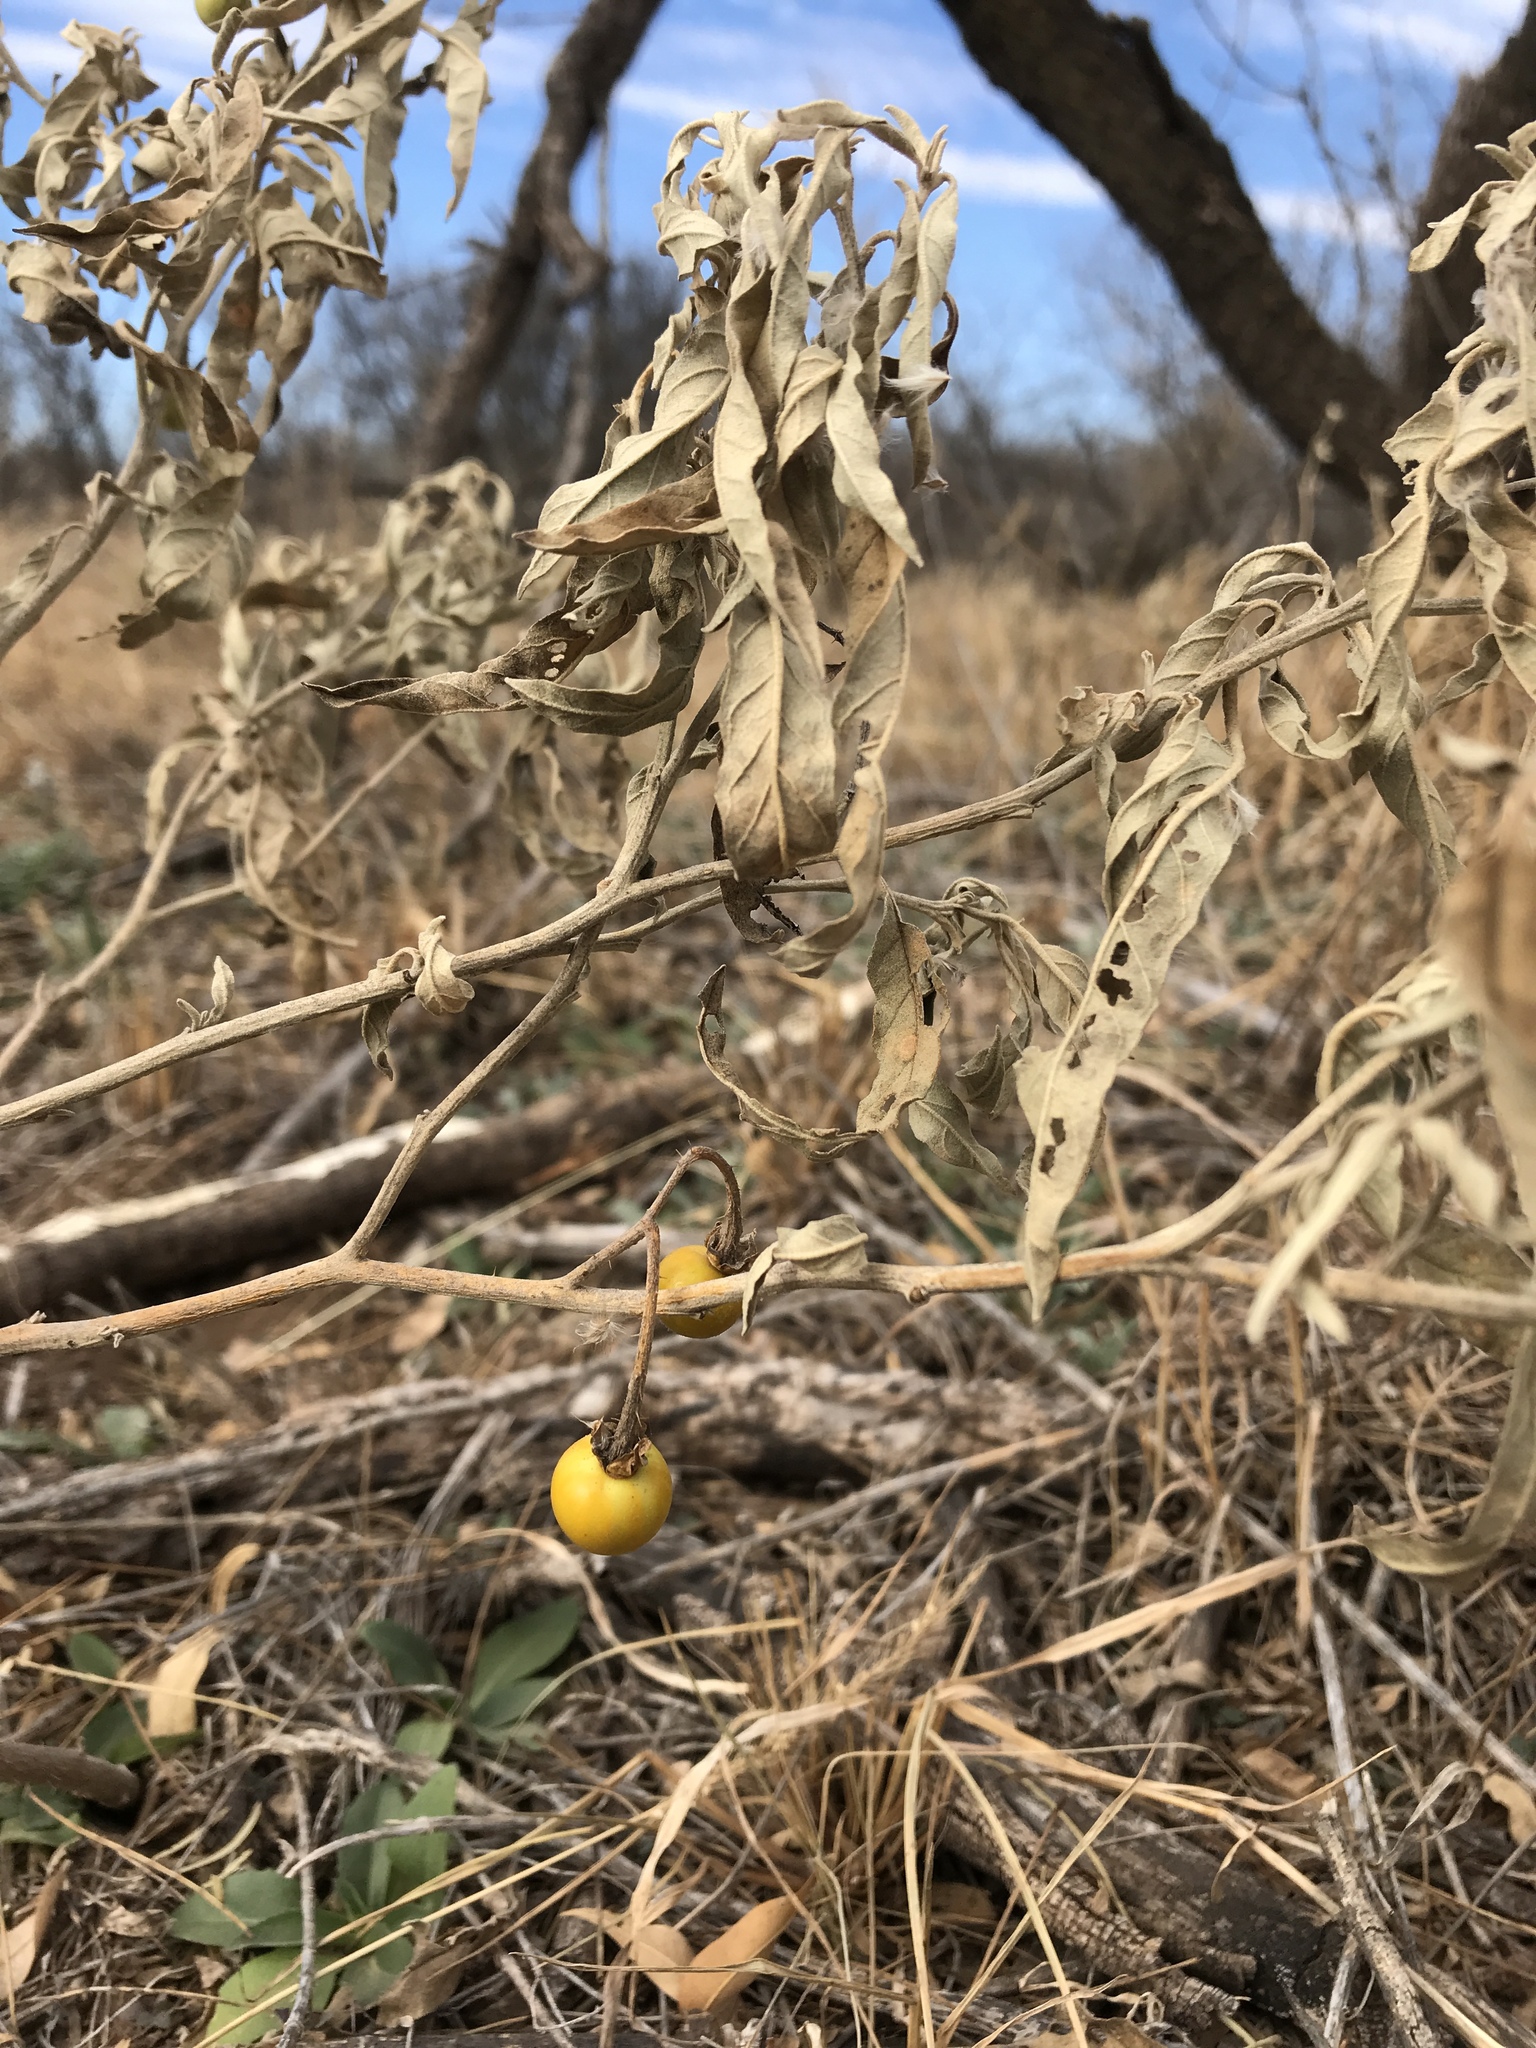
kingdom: Plantae
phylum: Tracheophyta
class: Magnoliopsida
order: Solanales
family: Solanaceae
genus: Solanum
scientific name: Solanum elaeagnifolium
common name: Silverleaf nightshade
